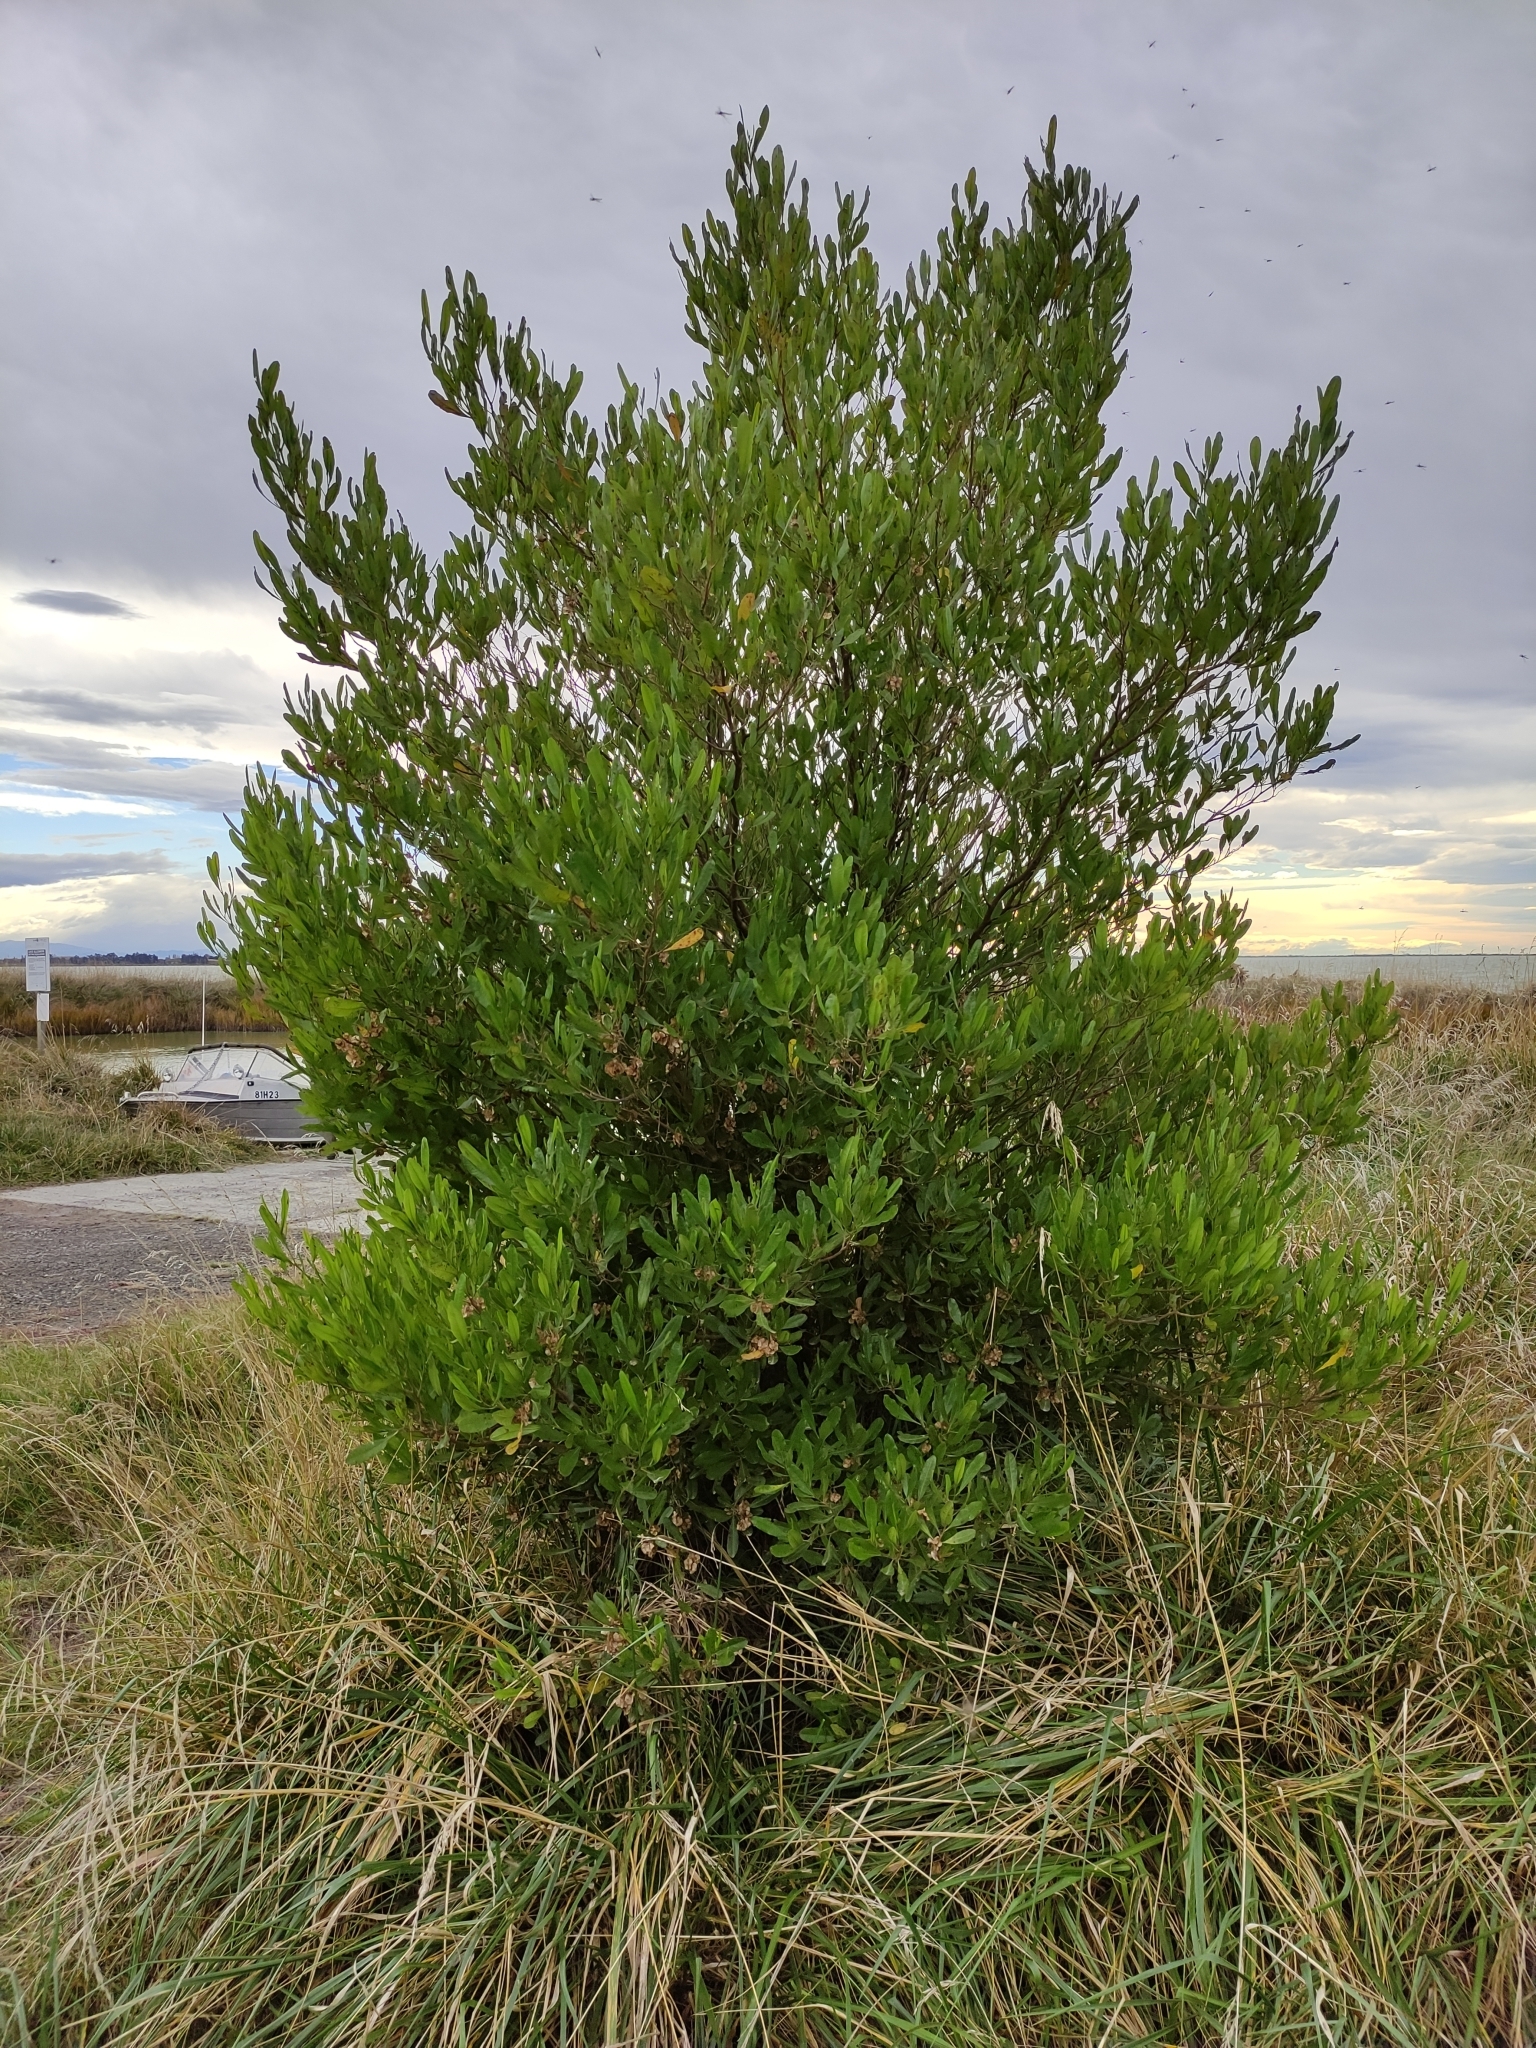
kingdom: Plantae
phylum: Tracheophyta
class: Magnoliopsida
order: Sapindales
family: Sapindaceae
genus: Dodonaea
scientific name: Dodonaea viscosa
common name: Hopbush
